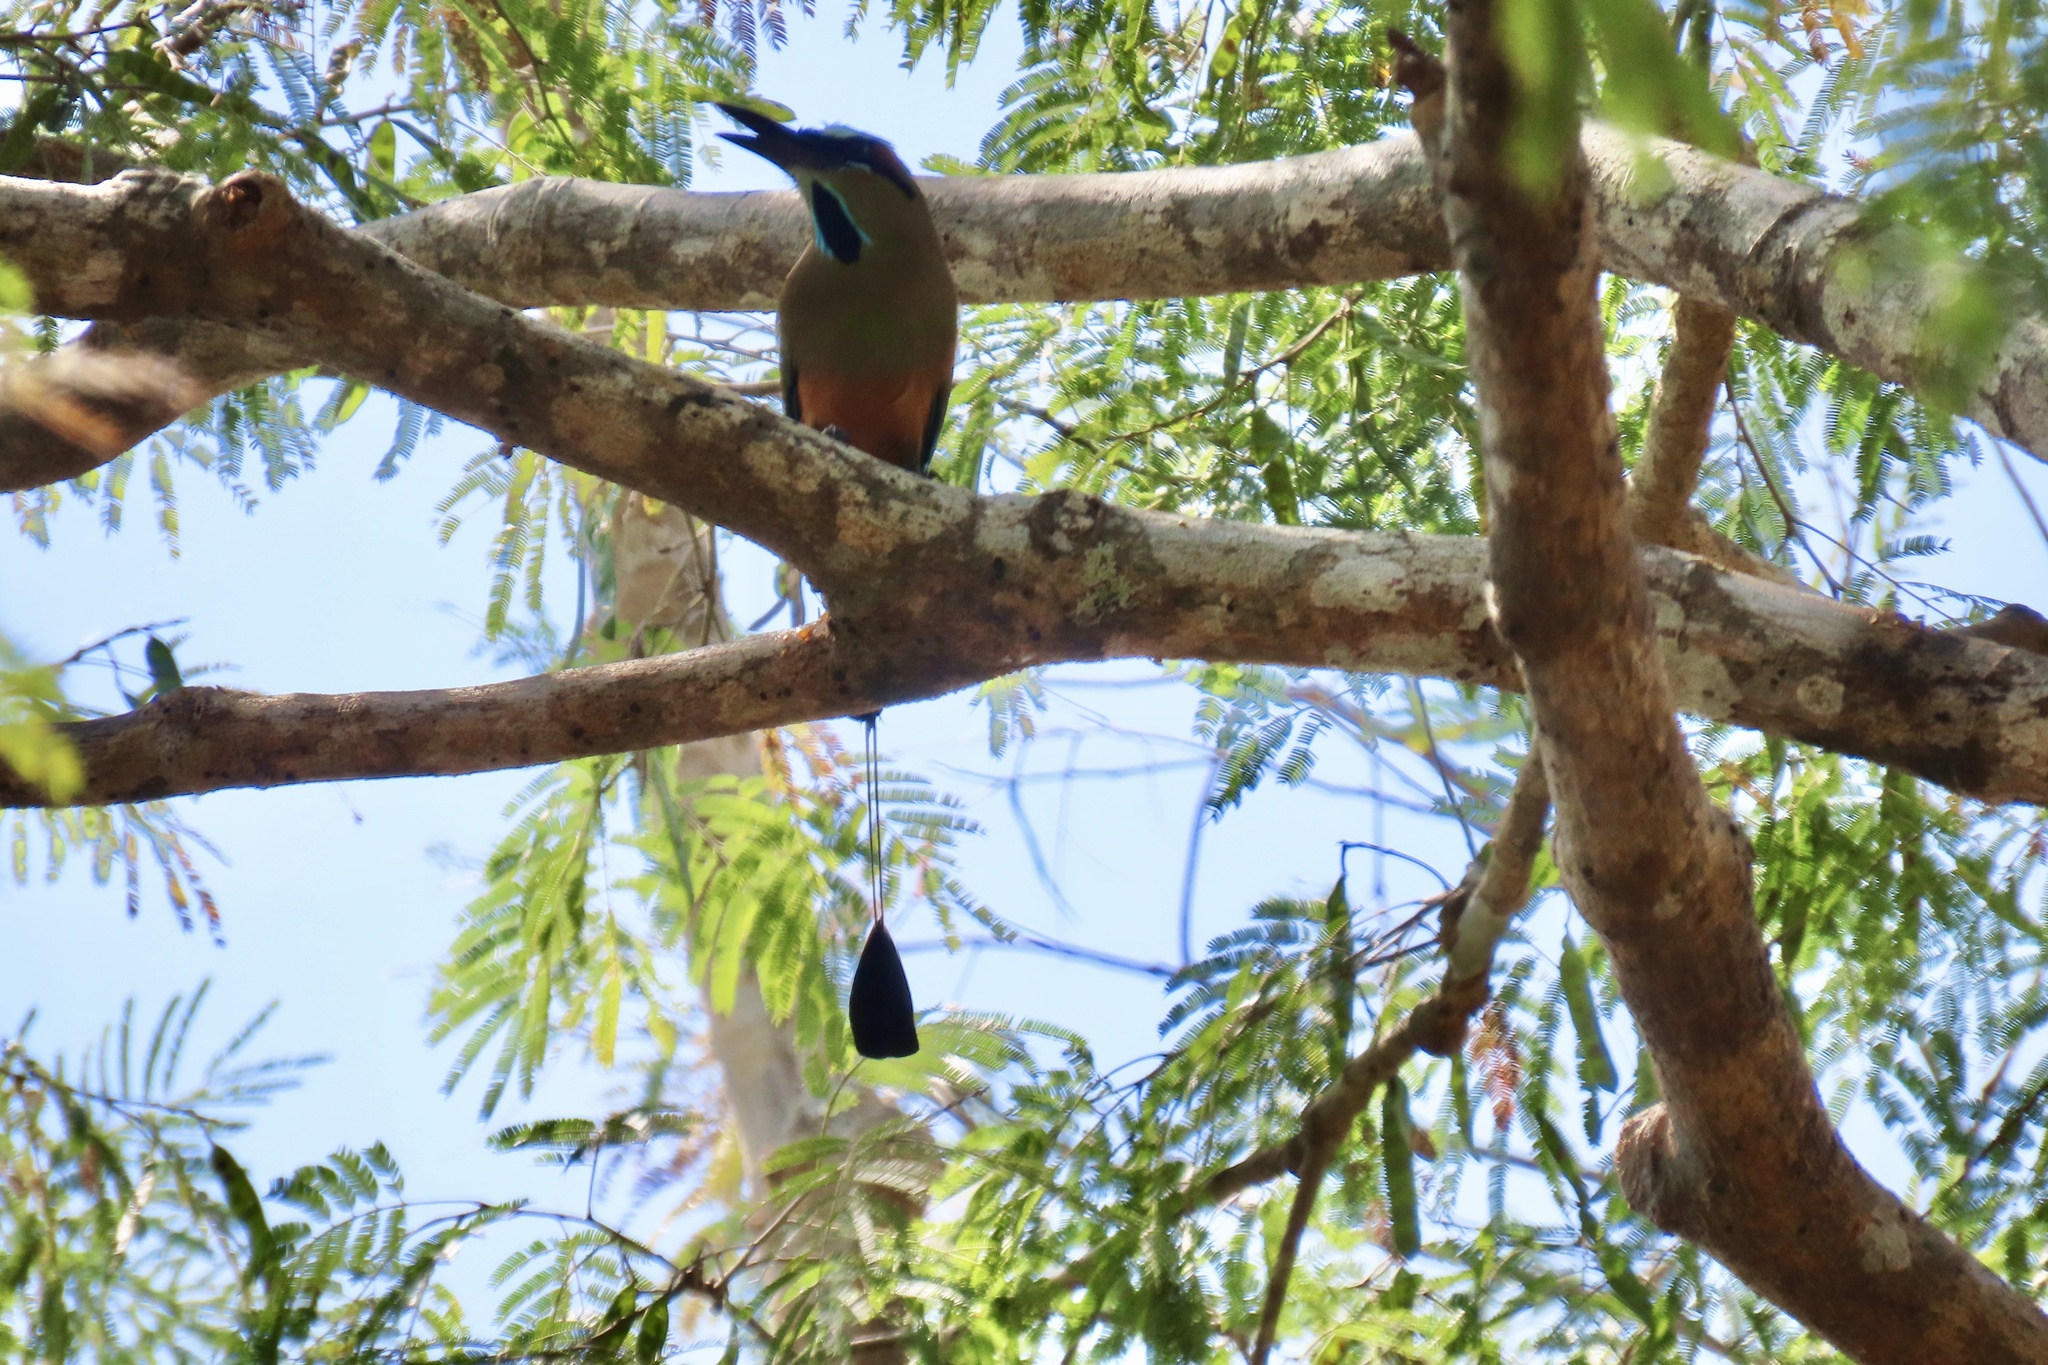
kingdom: Animalia
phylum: Chordata
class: Aves
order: Coraciiformes
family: Momotidae
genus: Eumomota
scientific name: Eumomota superciliosa
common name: Turquoise-browed motmot
